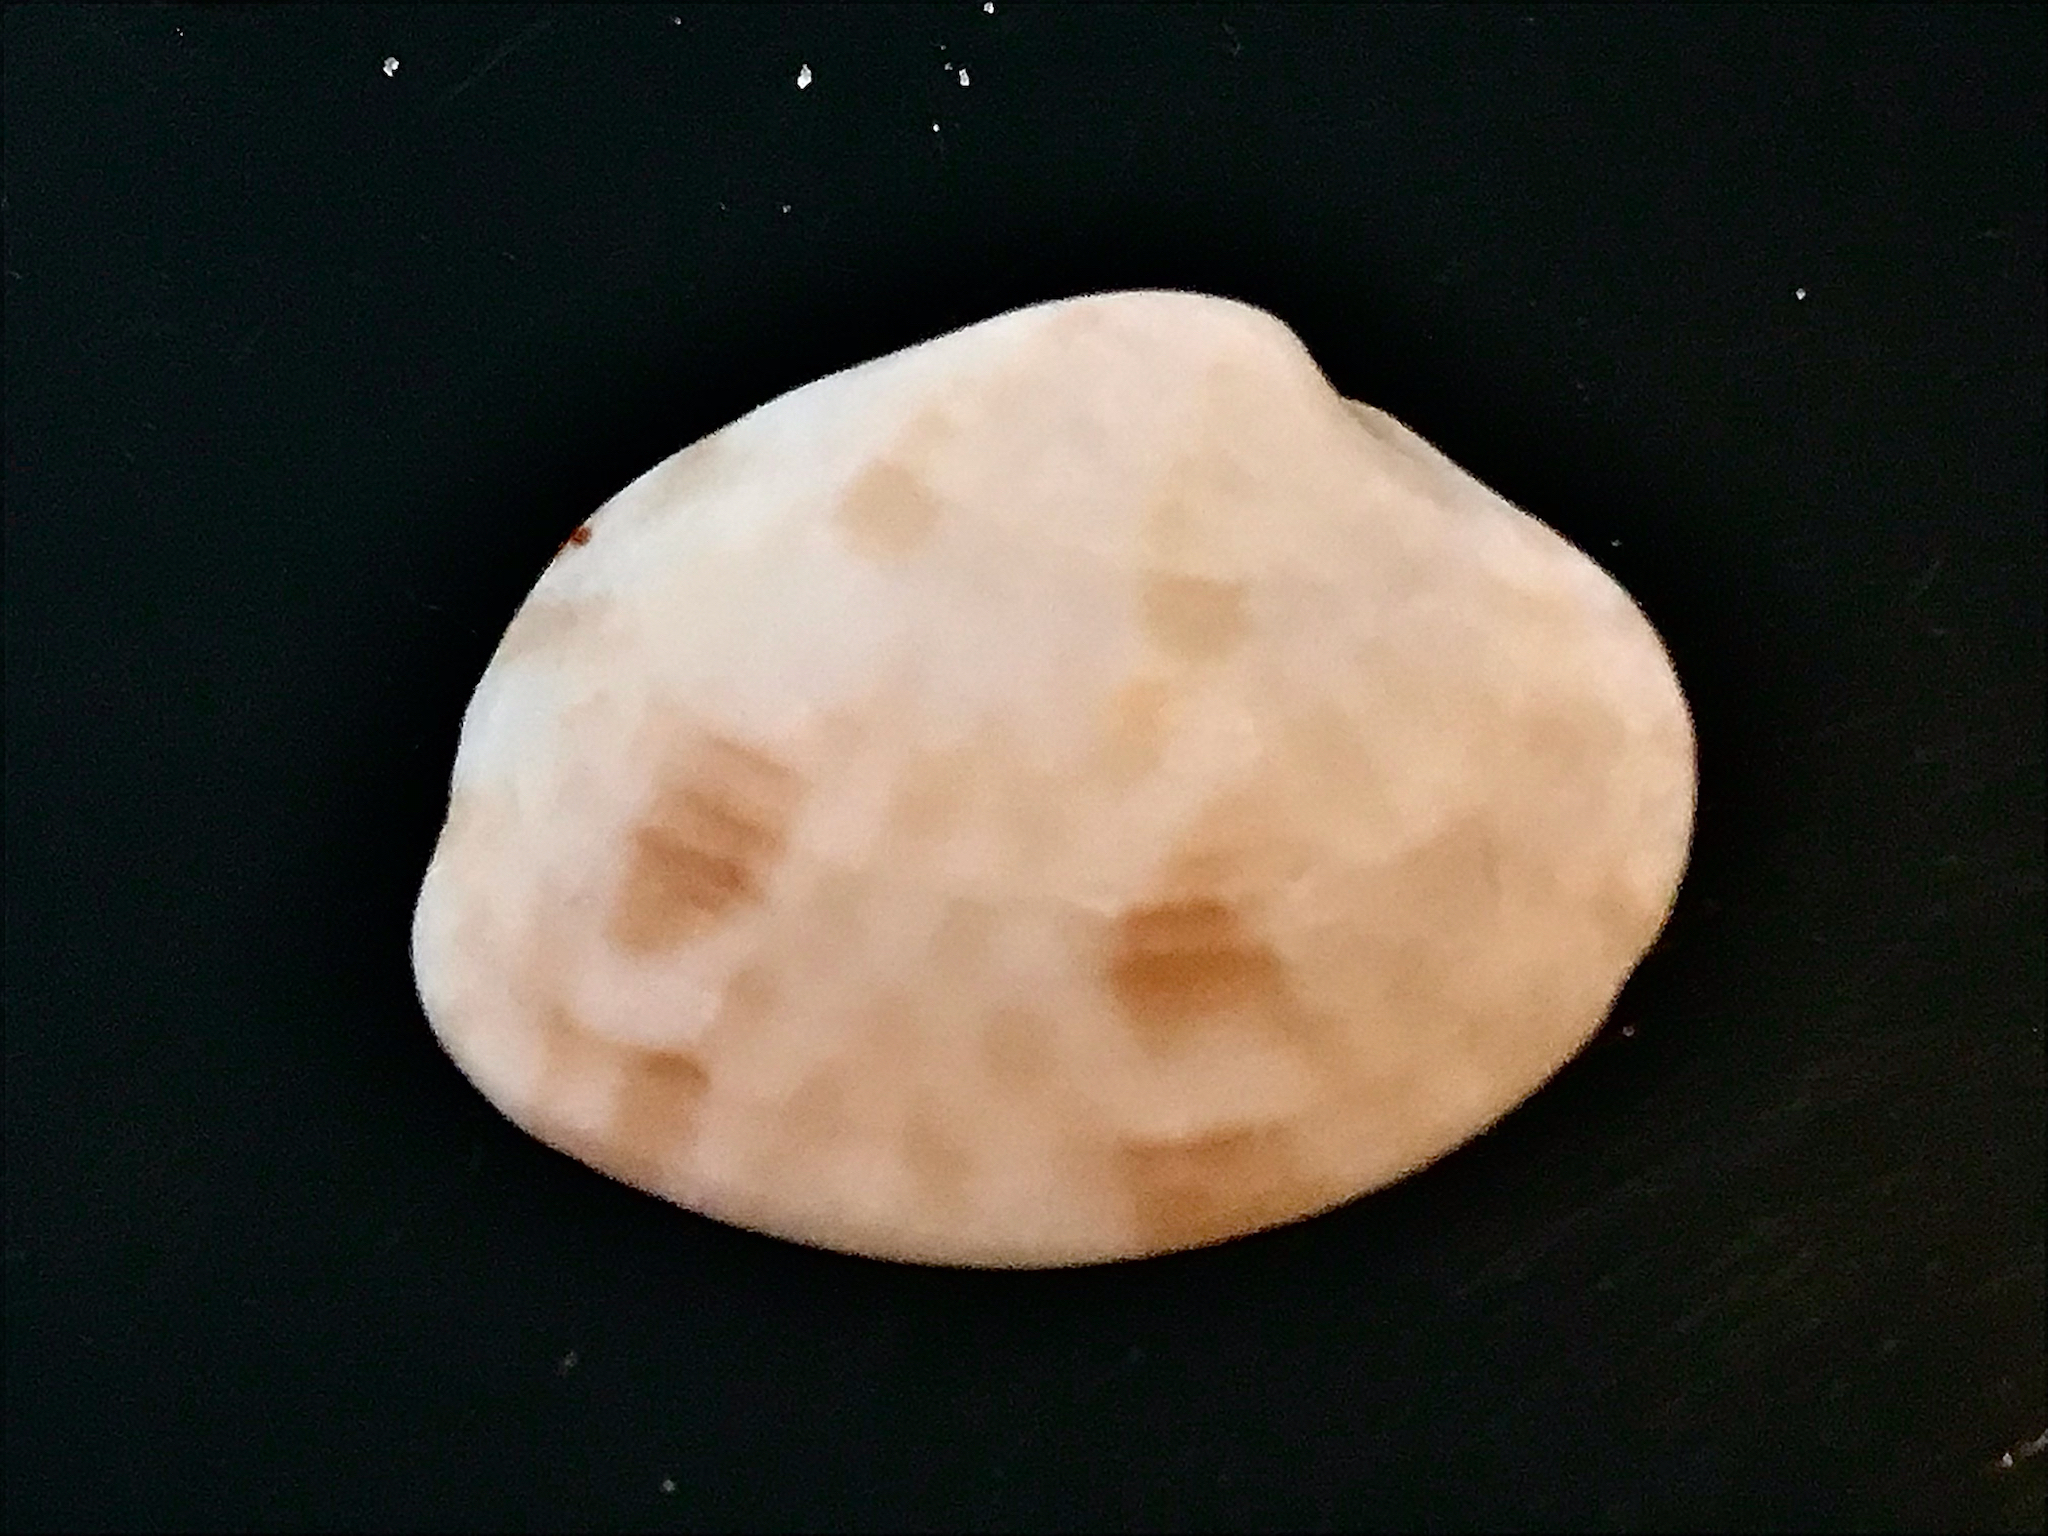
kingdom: Animalia
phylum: Mollusca
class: Bivalvia
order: Venerida
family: Veneridae
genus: Megapitaria
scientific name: Megapitaria maculata
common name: Calico clam
